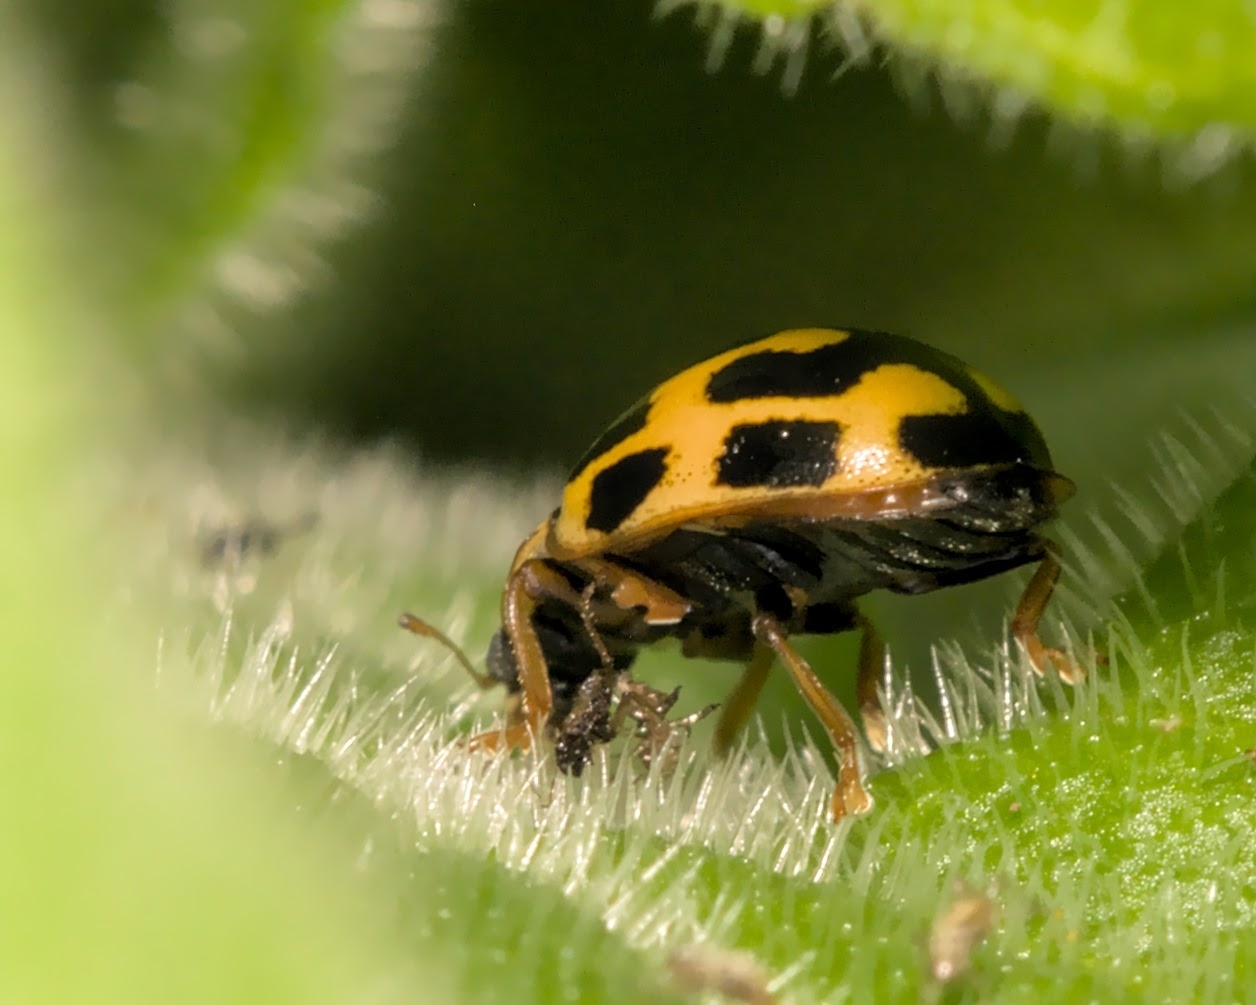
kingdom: Animalia
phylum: Arthropoda
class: Insecta
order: Coleoptera
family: Coccinellidae
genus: Propylaea
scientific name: Propylaea quatuordecimpunctata
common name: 14-spotted ladybird beetle
